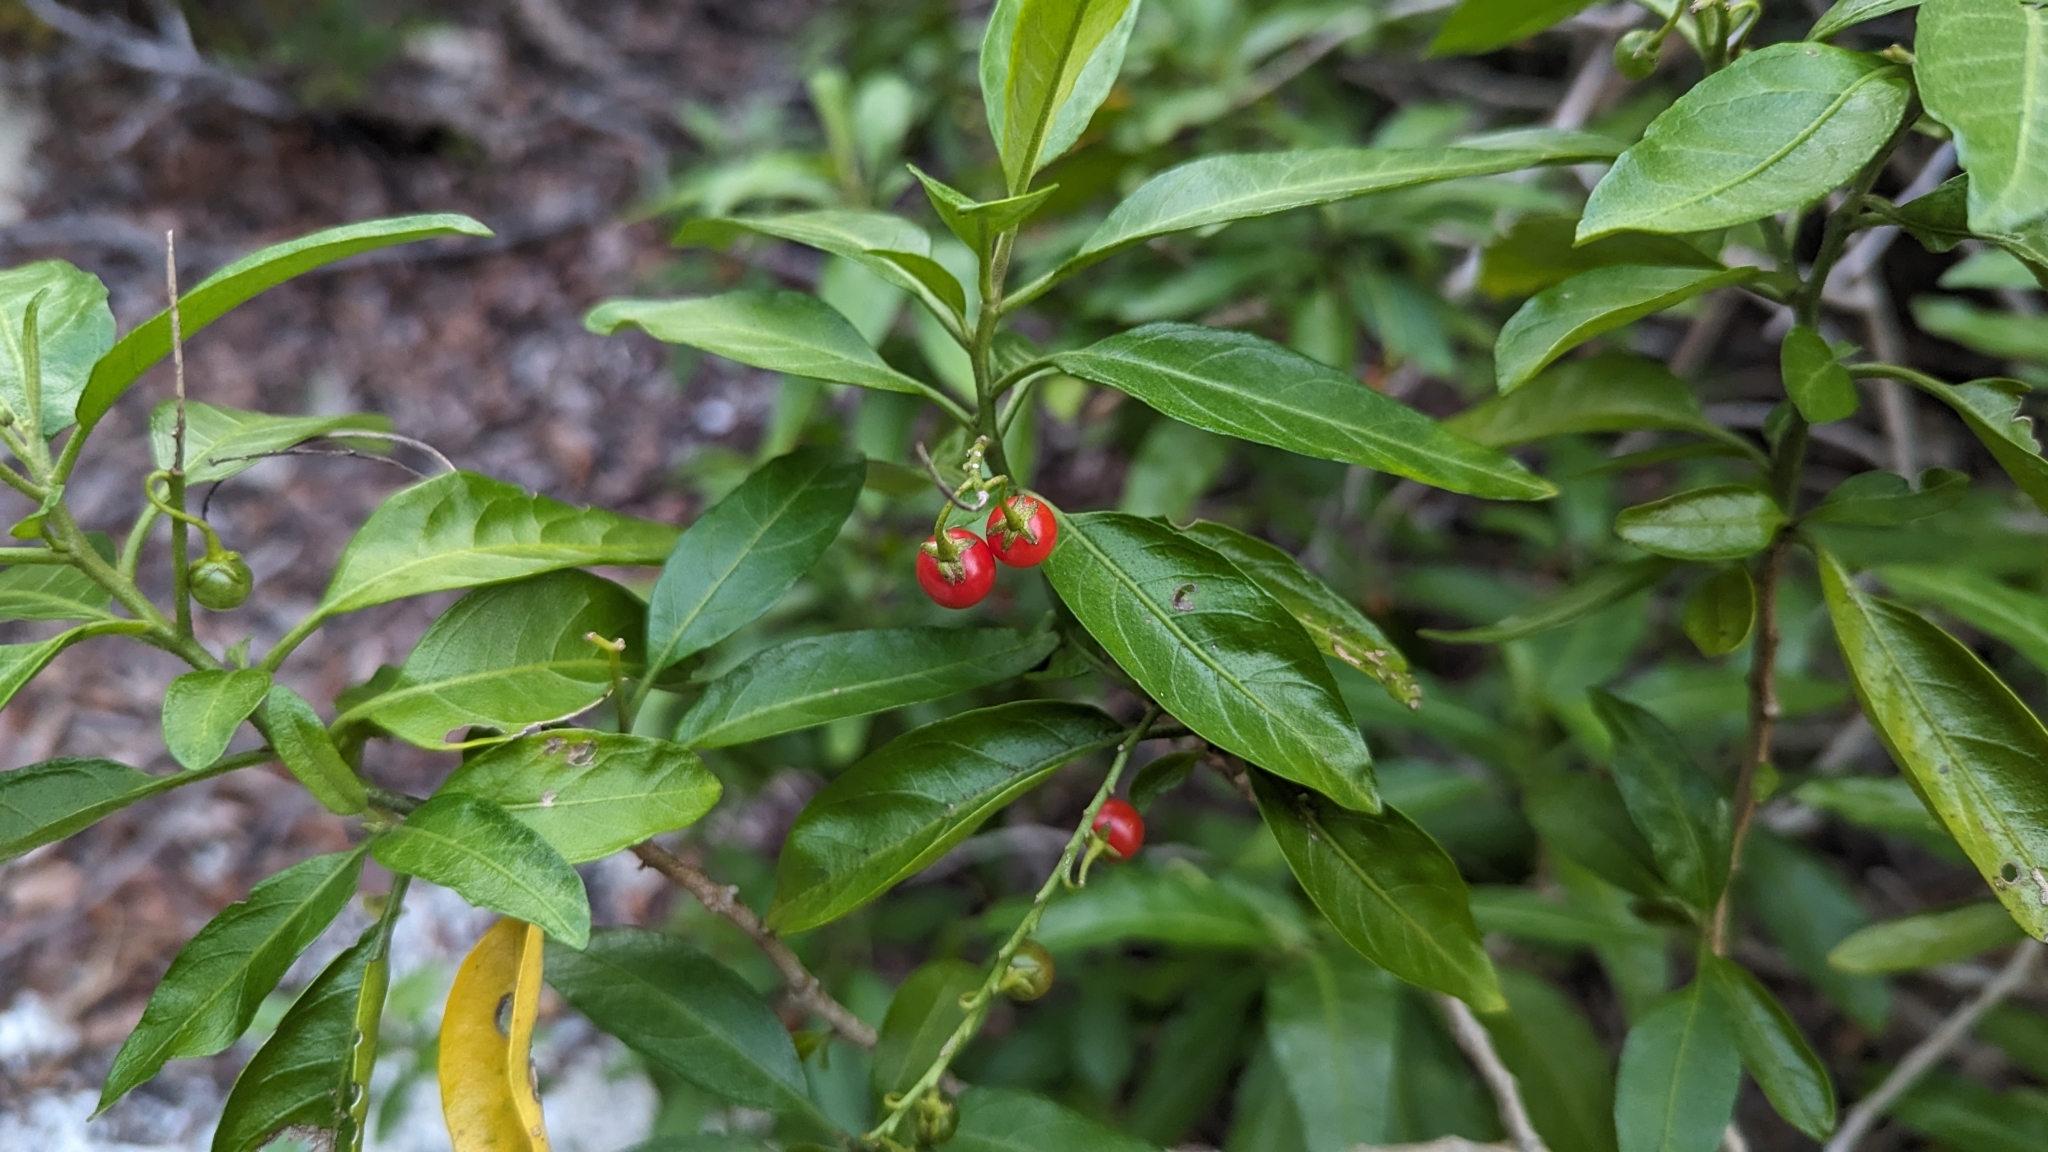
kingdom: Plantae
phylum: Tracheophyta
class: Magnoliopsida
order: Solanales
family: Solanaceae
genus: Solanum
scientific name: Solanum bahamense
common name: Canker-berry
